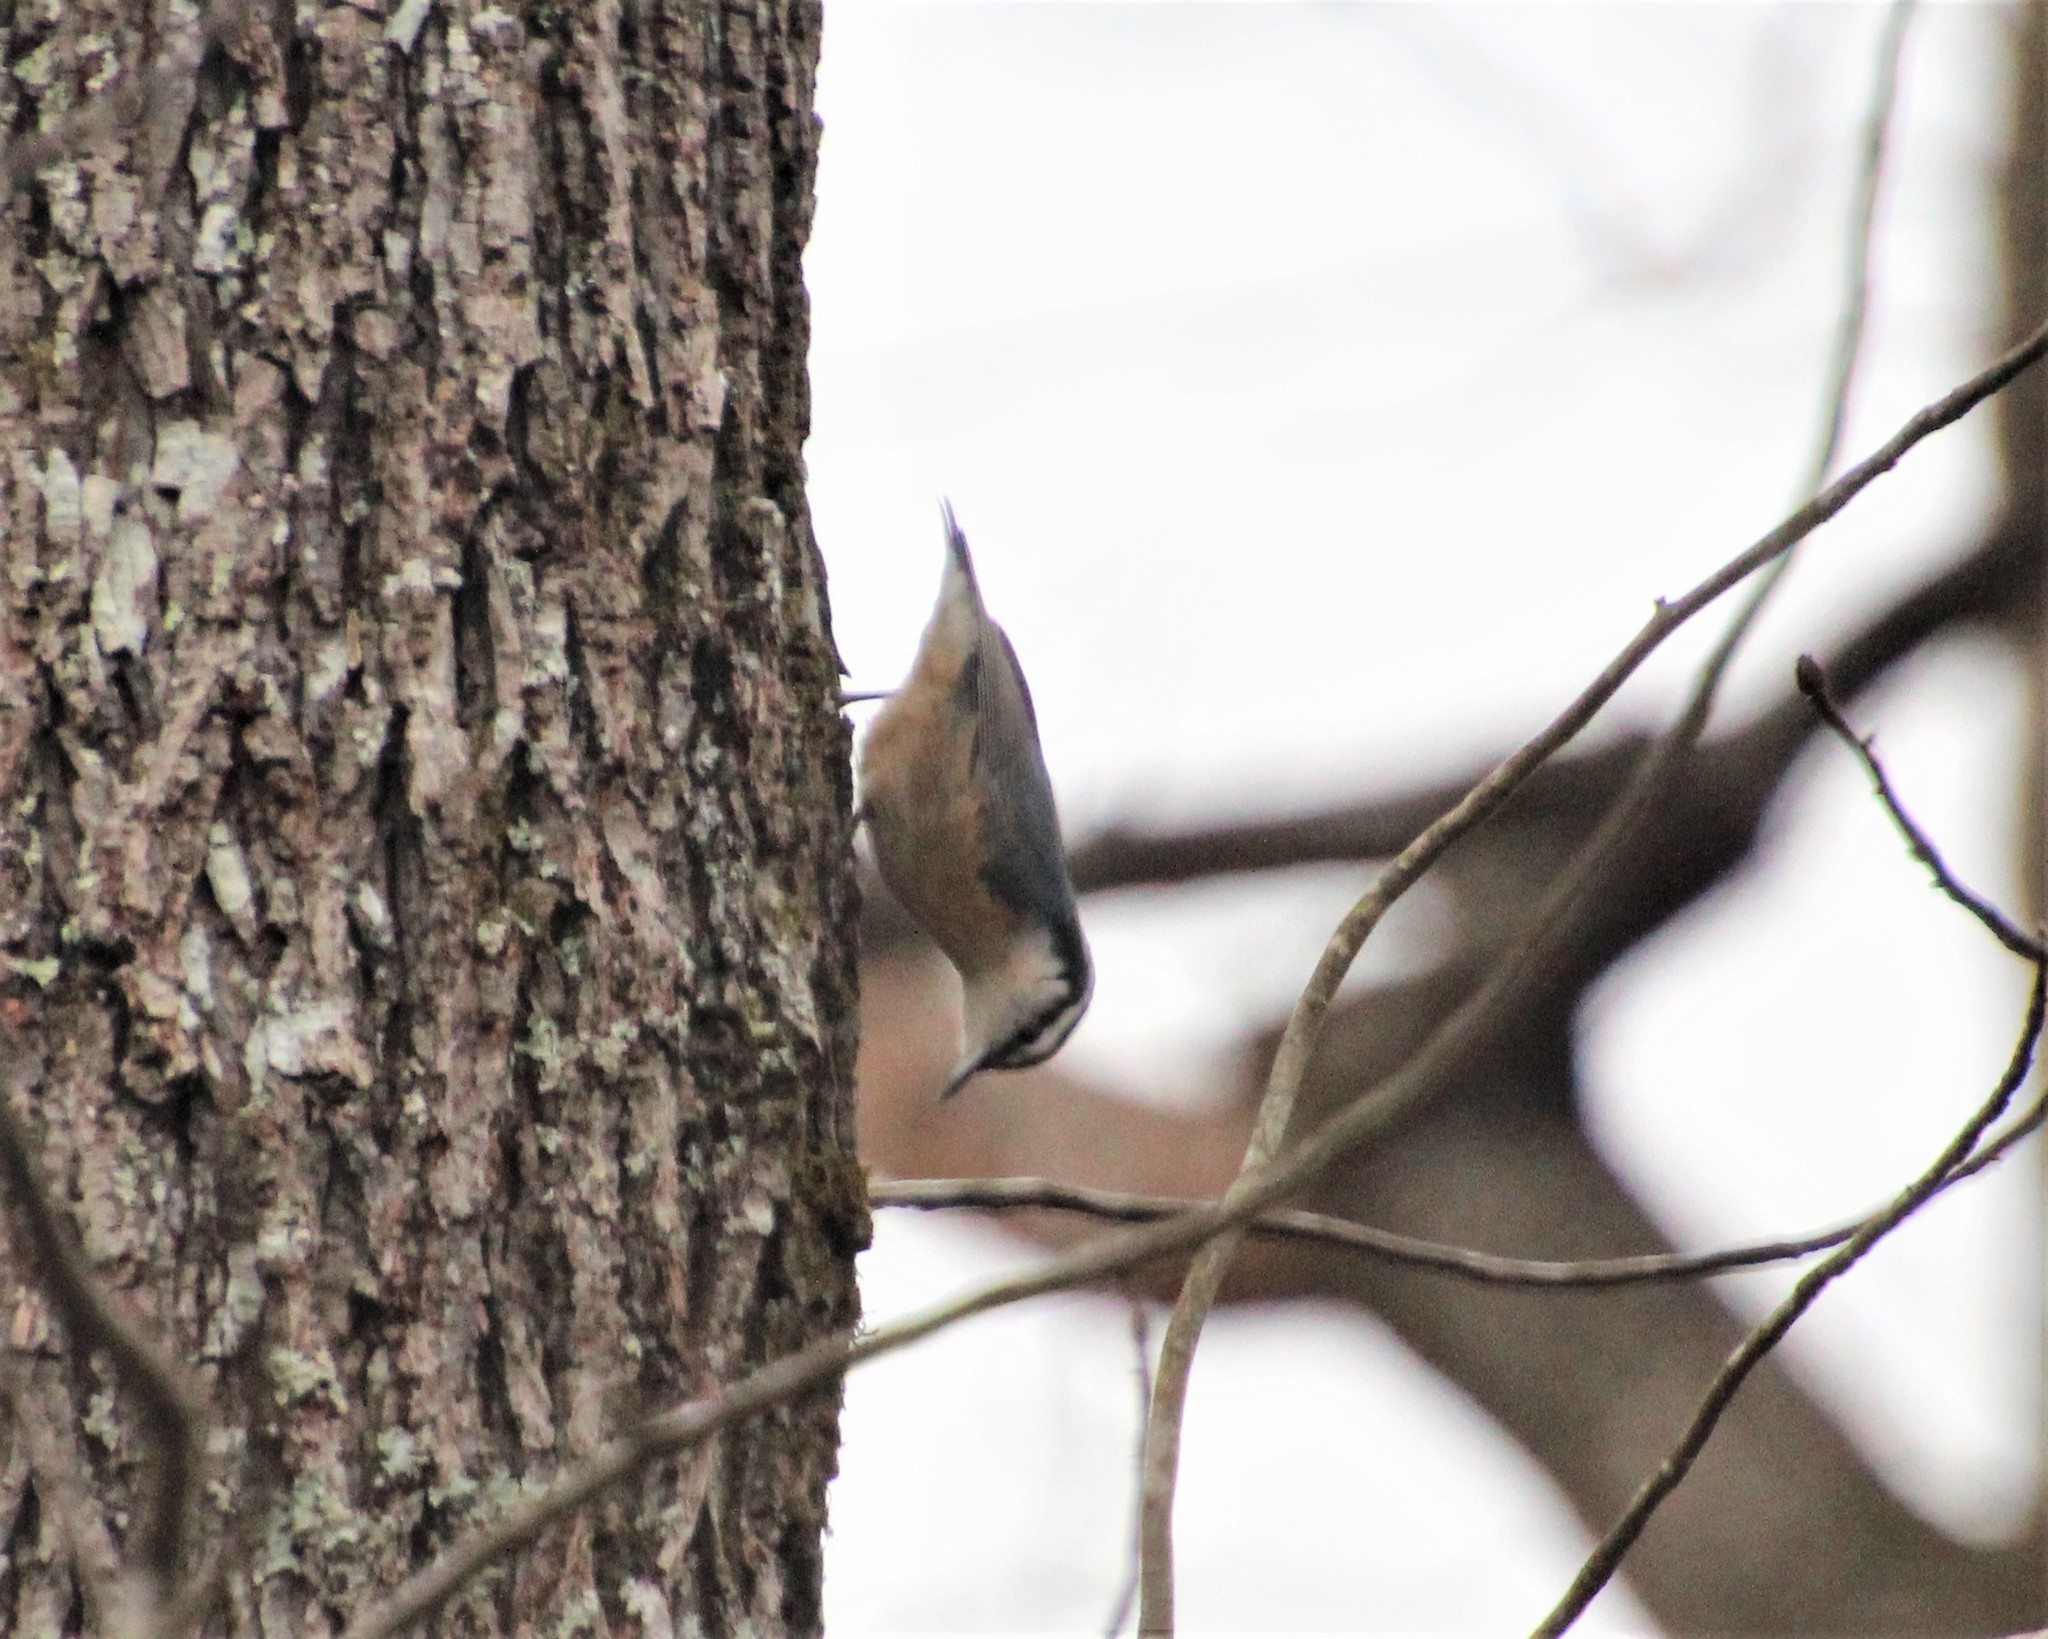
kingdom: Animalia
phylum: Chordata
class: Aves
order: Passeriformes
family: Sittidae
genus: Sitta
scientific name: Sitta canadensis
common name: Red-breasted nuthatch
